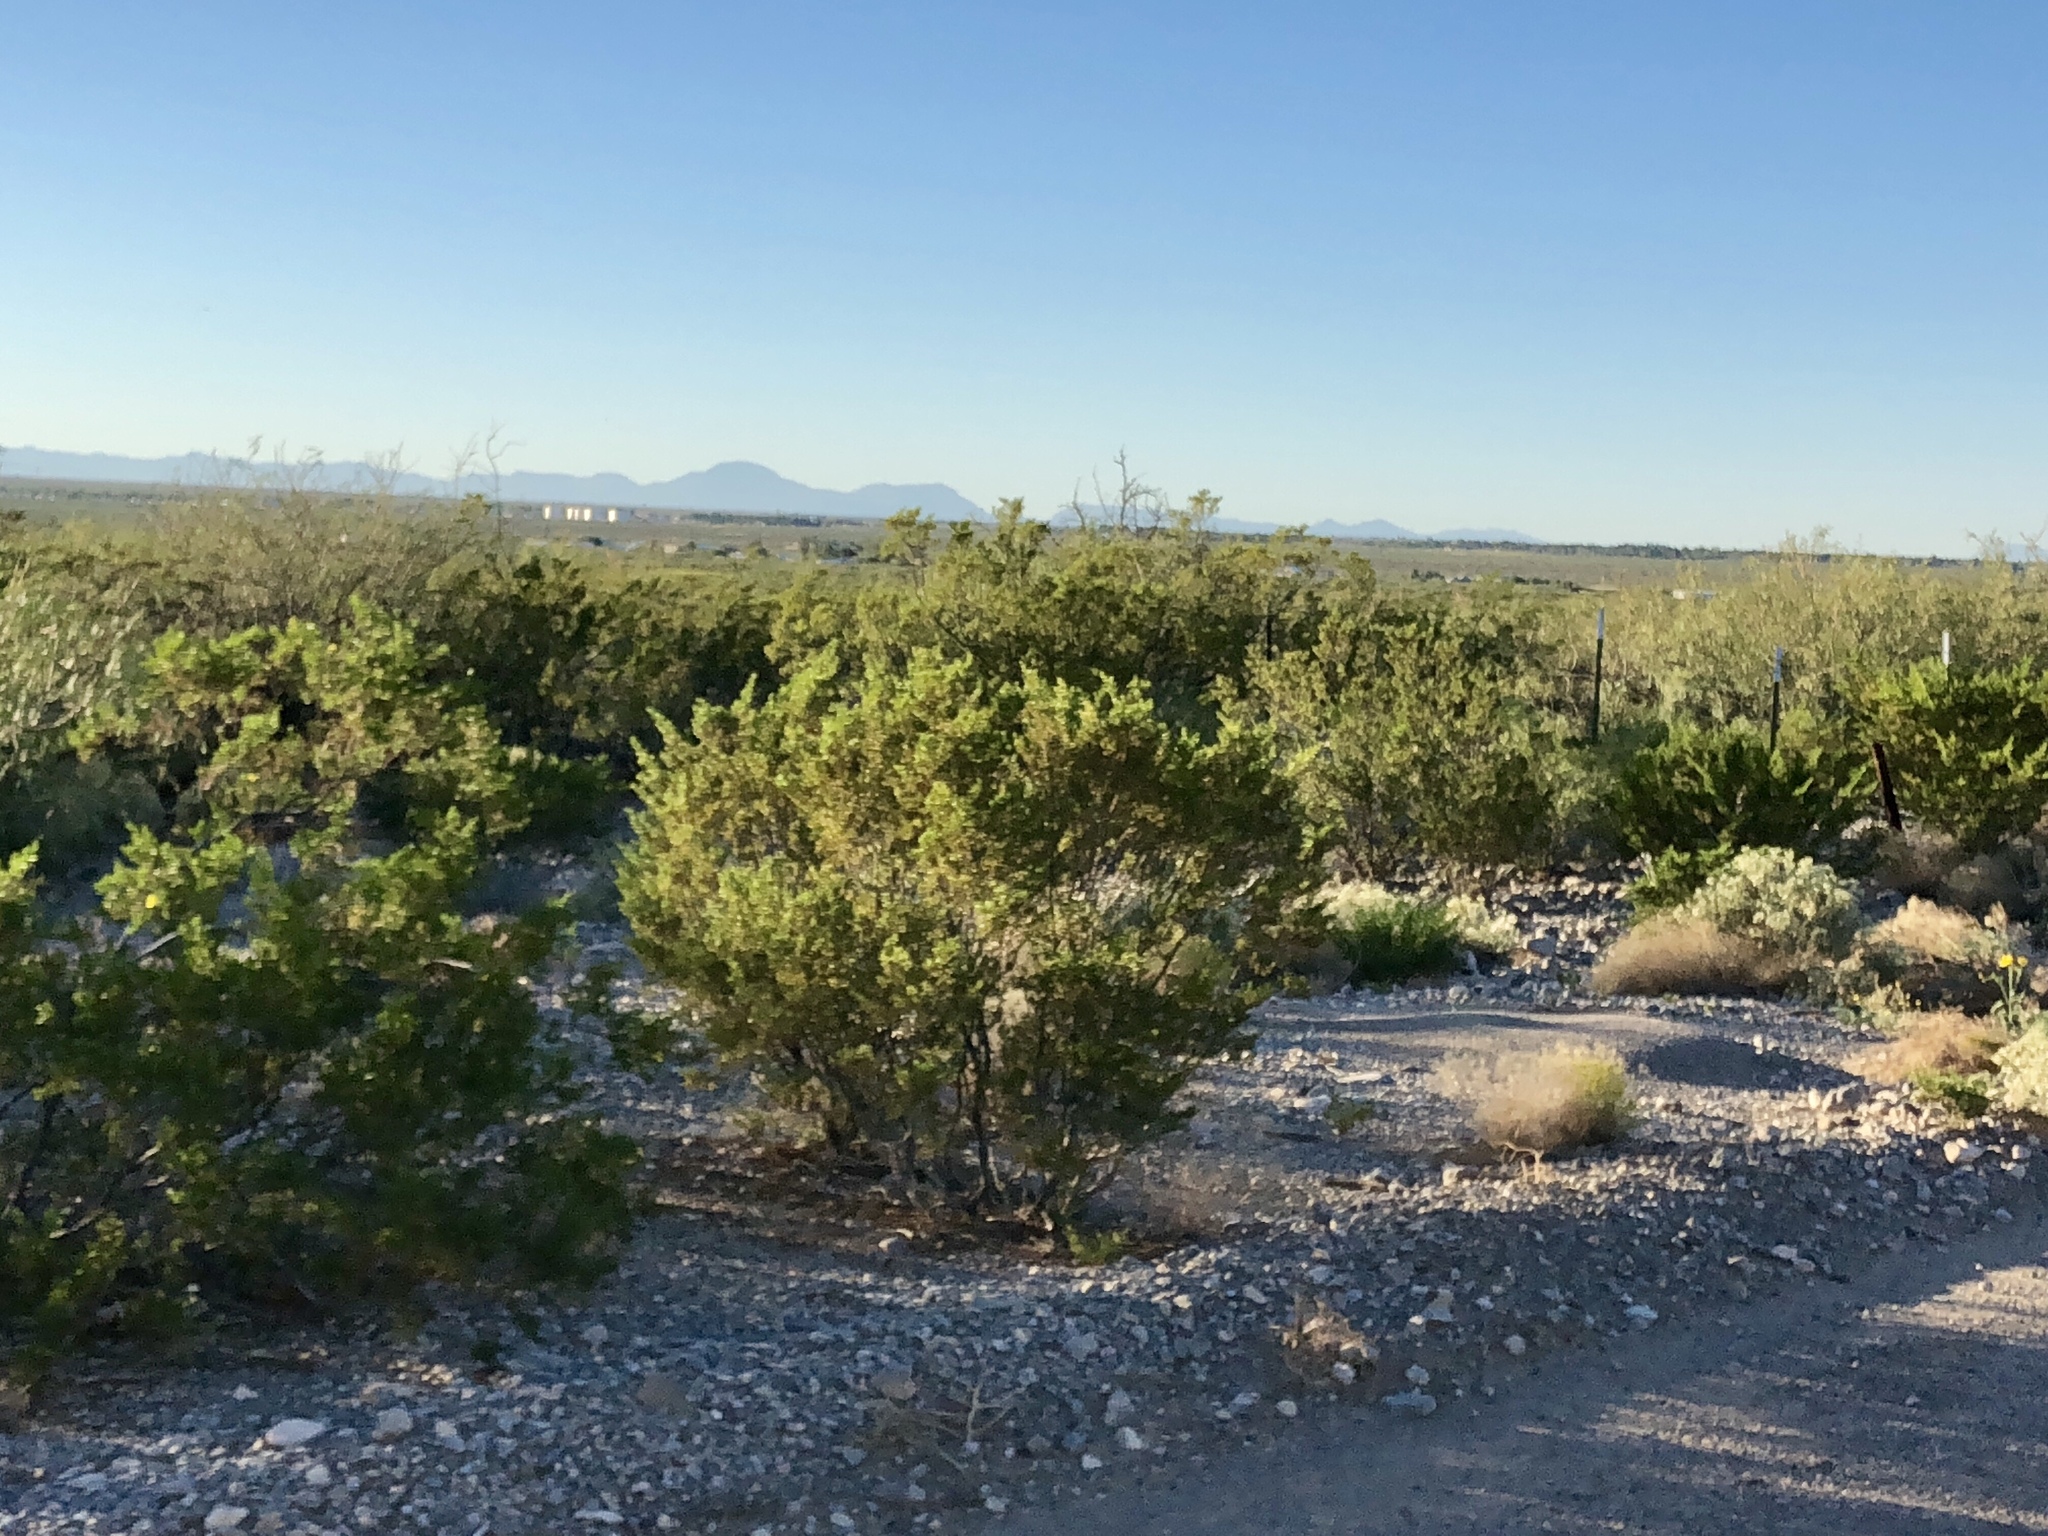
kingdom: Plantae
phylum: Tracheophyta
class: Magnoliopsida
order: Zygophyllales
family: Zygophyllaceae
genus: Larrea
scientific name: Larrea tridentata
